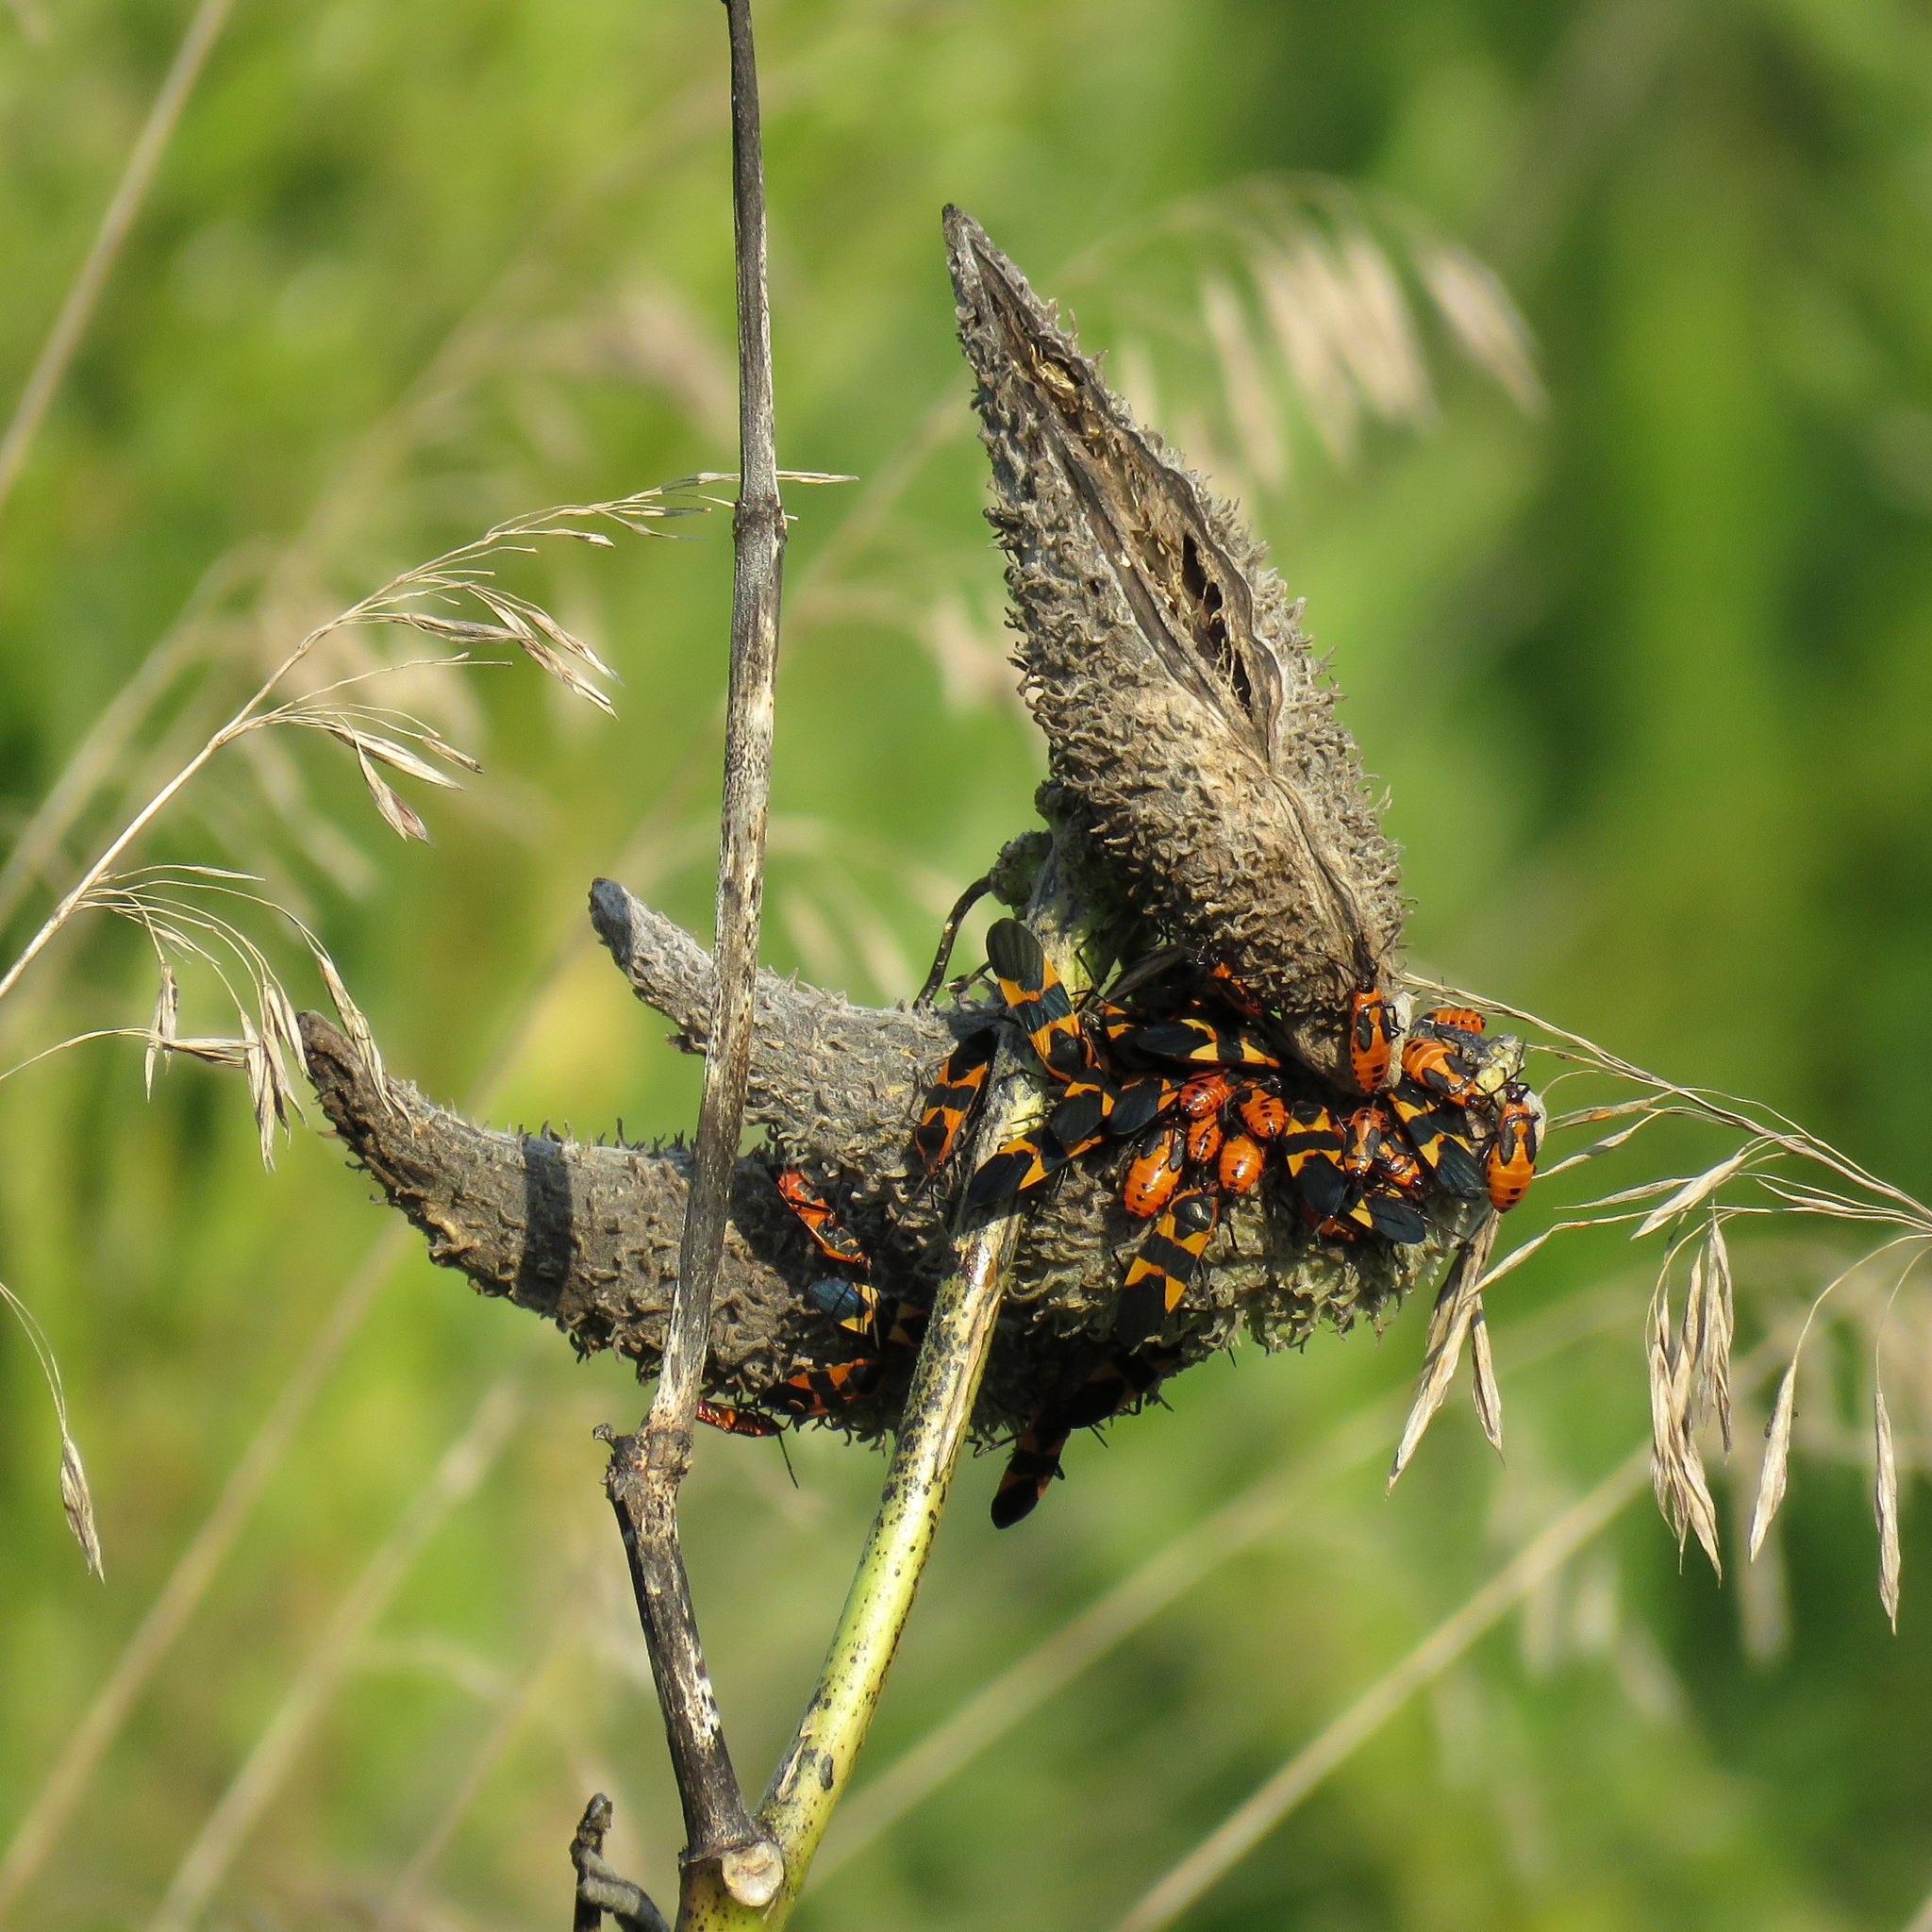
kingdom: Animalia
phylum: Arthropoda
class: Insecta
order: Hemiptera
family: Lygaeidae
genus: Oncopeltus
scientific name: Oncopeltus fasciatus
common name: Large milkweed bug
